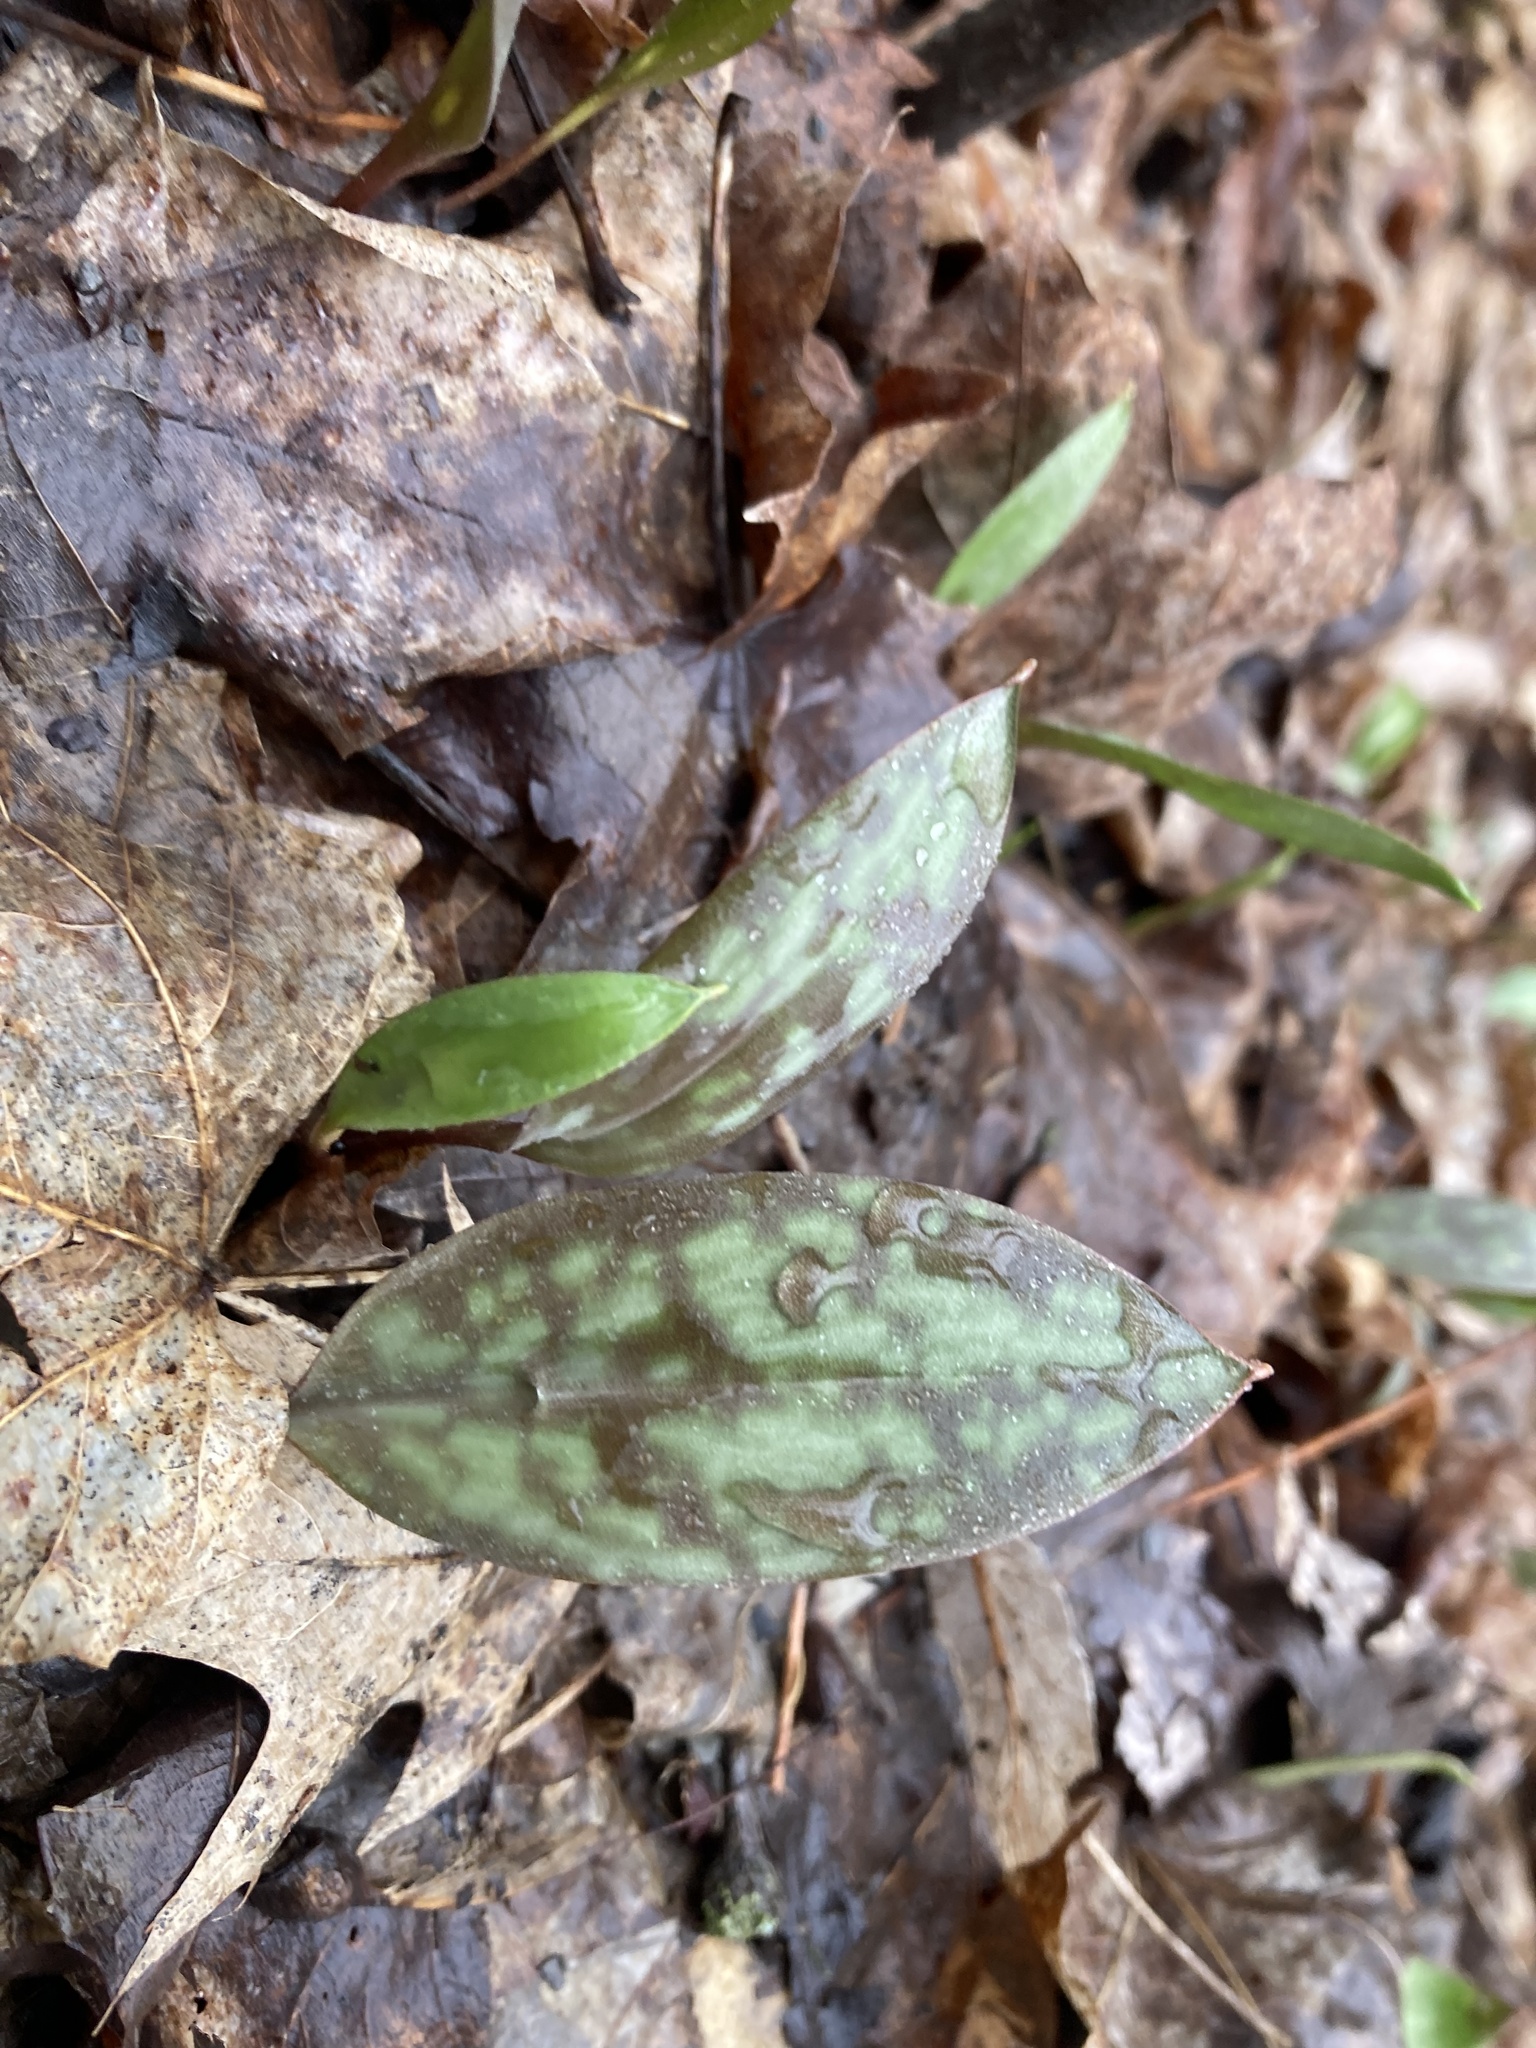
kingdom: Plantae
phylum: Tracheophyta
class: Liliopsida
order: Liliales
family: Liliaceae
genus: Erythronium
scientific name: Erythronium americanum
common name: Yellow adder's-tongue
